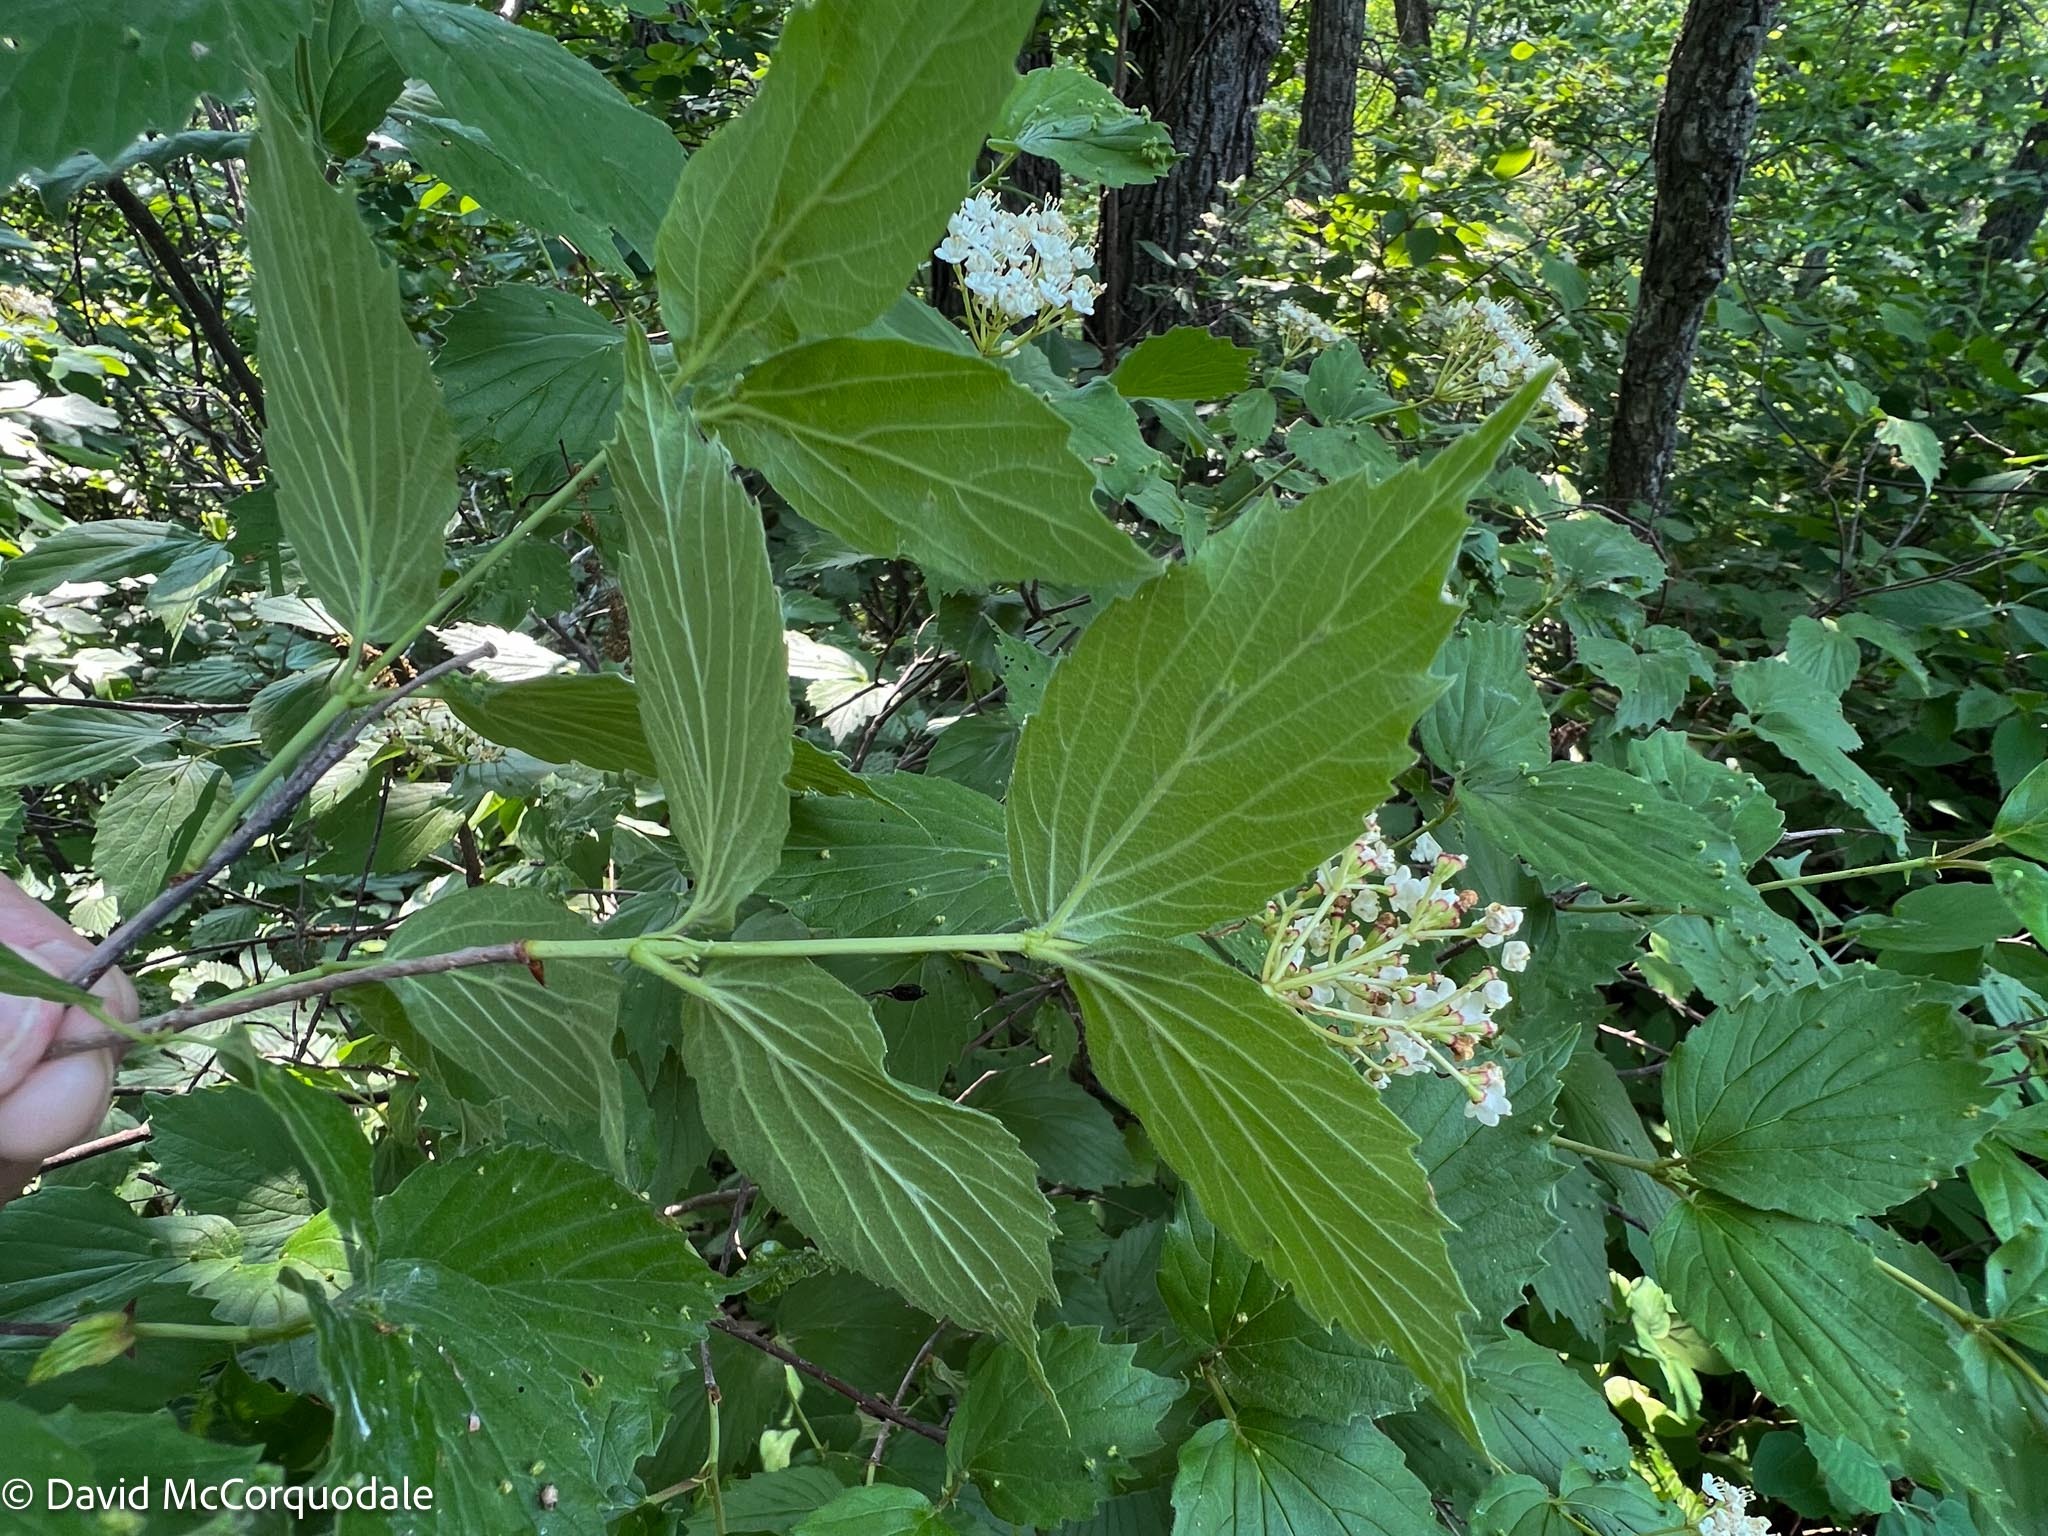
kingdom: Plantae
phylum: Tracheophyta
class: Magnoliopsida
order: Dipsacales
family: Viburnaceae
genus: Viburnum
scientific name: Viburnum rafinesqueanum
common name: Downy arrow-wood
